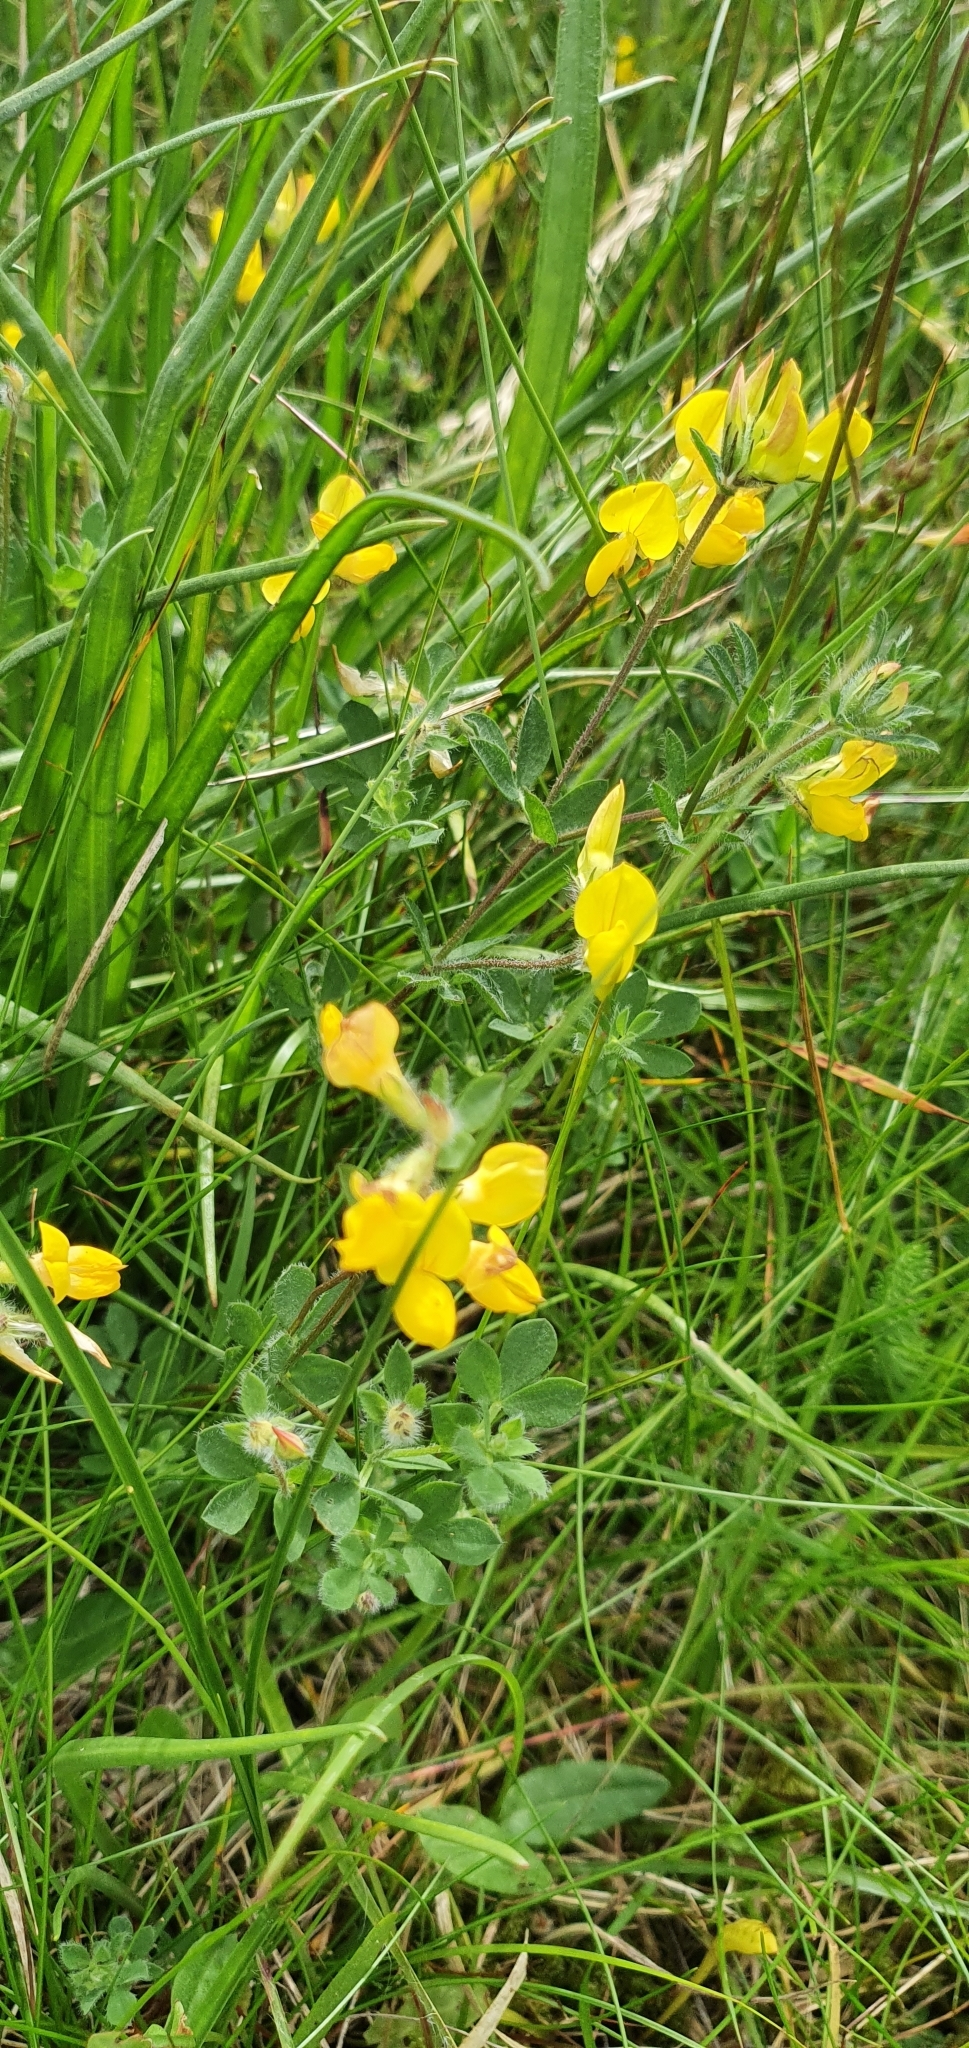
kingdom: Plantae
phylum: Tracheophyta
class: Magnoliopsida
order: Fabales
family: Fabaceae
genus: Lotus
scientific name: Lotus corniculatus
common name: Common bird's-foot-trefoil
